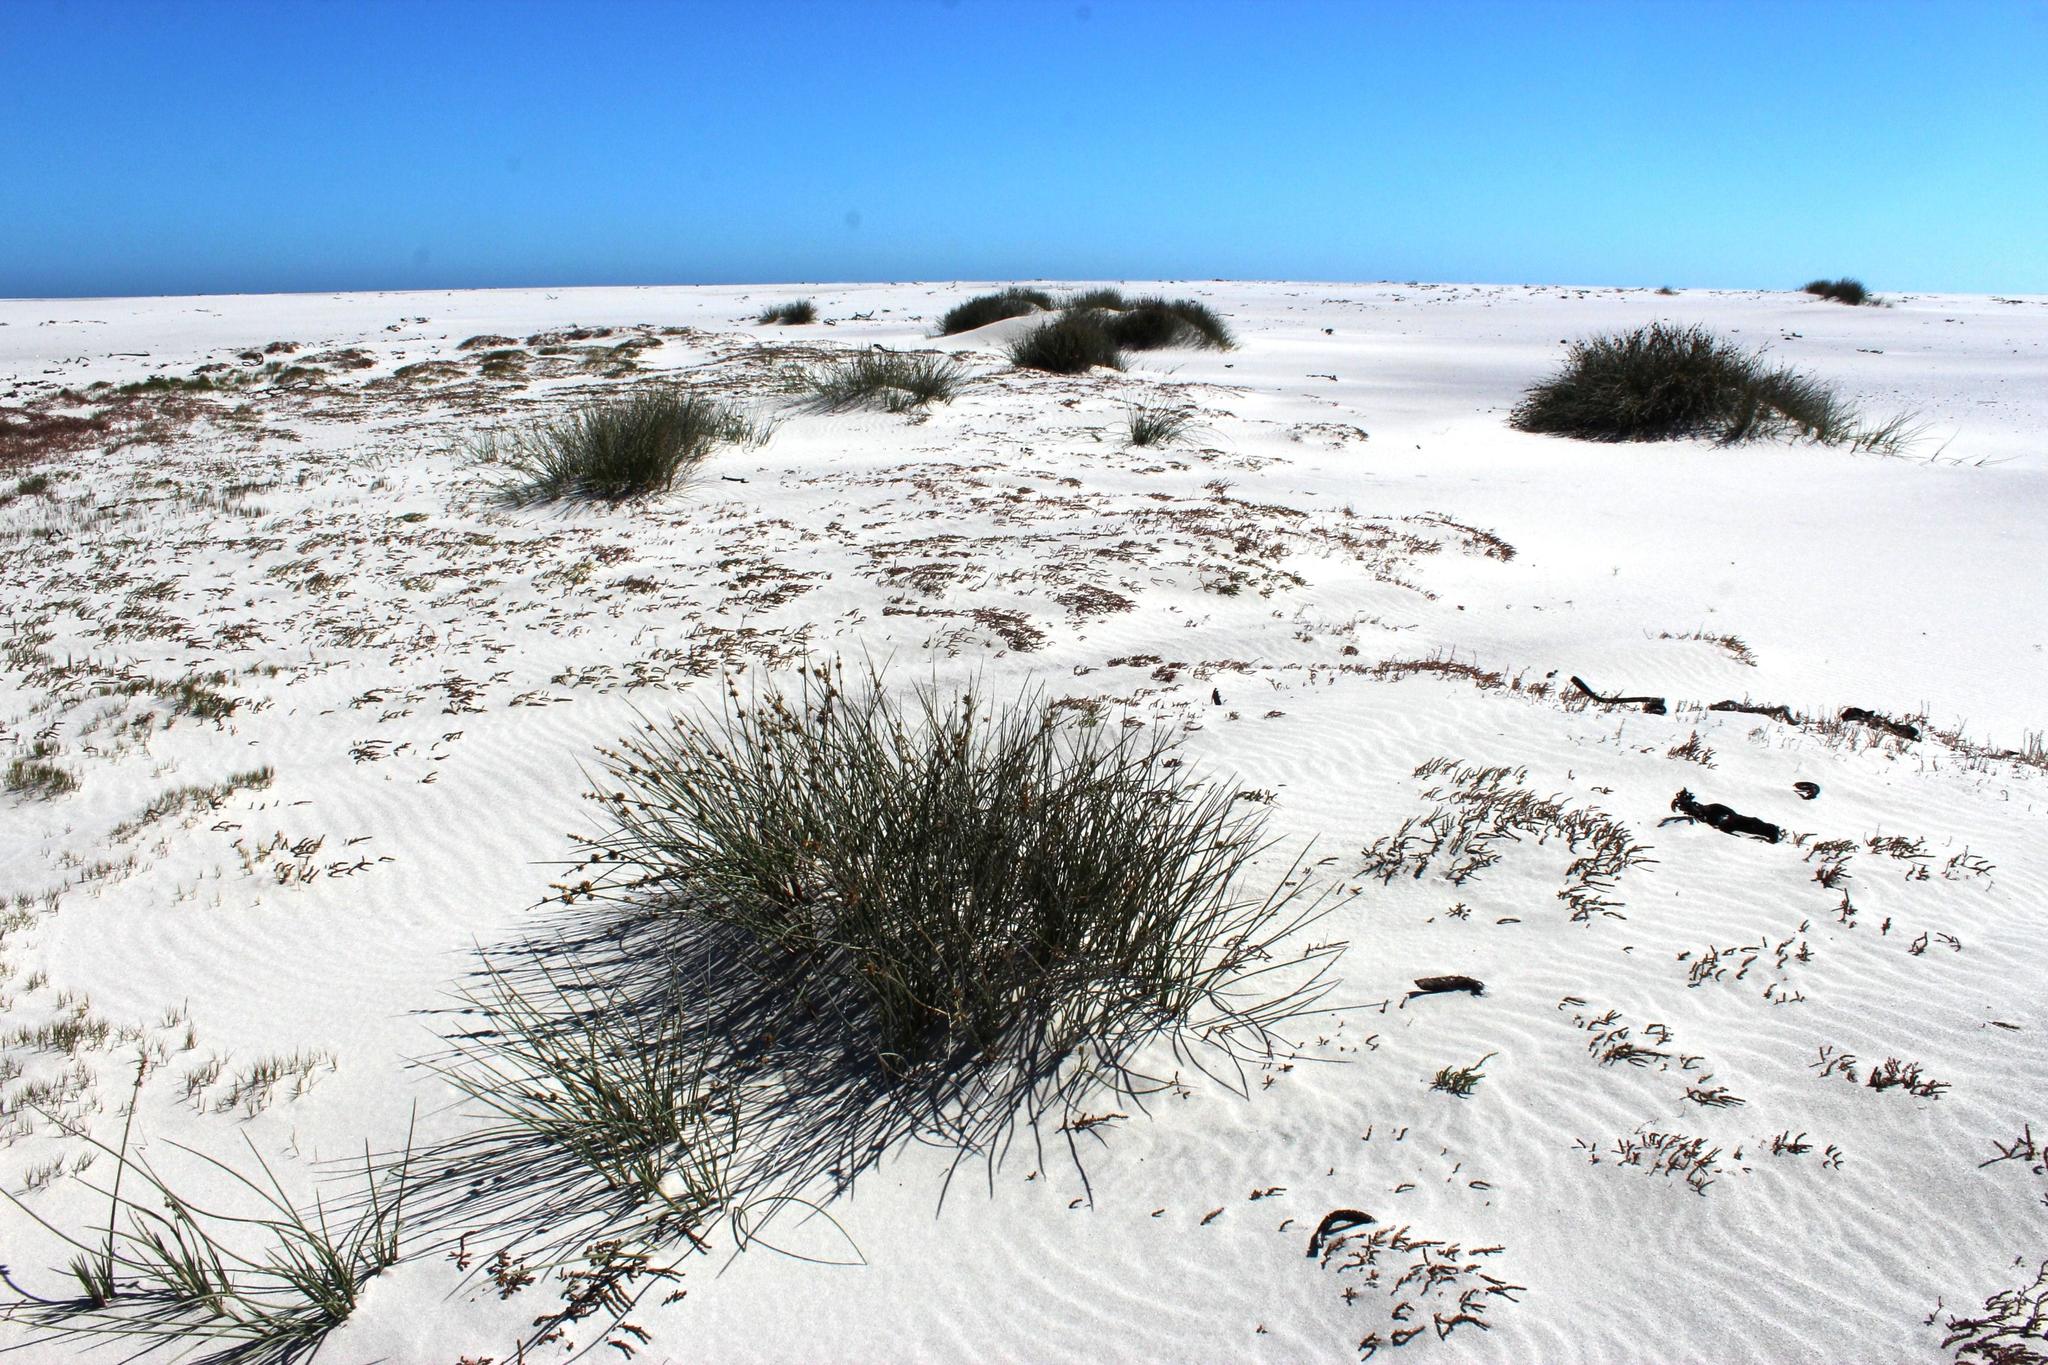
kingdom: Plantae
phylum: Tracheophyta
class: Liliopsida
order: Poales
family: Poaceae
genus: Cladoraphis
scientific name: Cladoraphis cyperoides
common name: Bristly lovegrass
